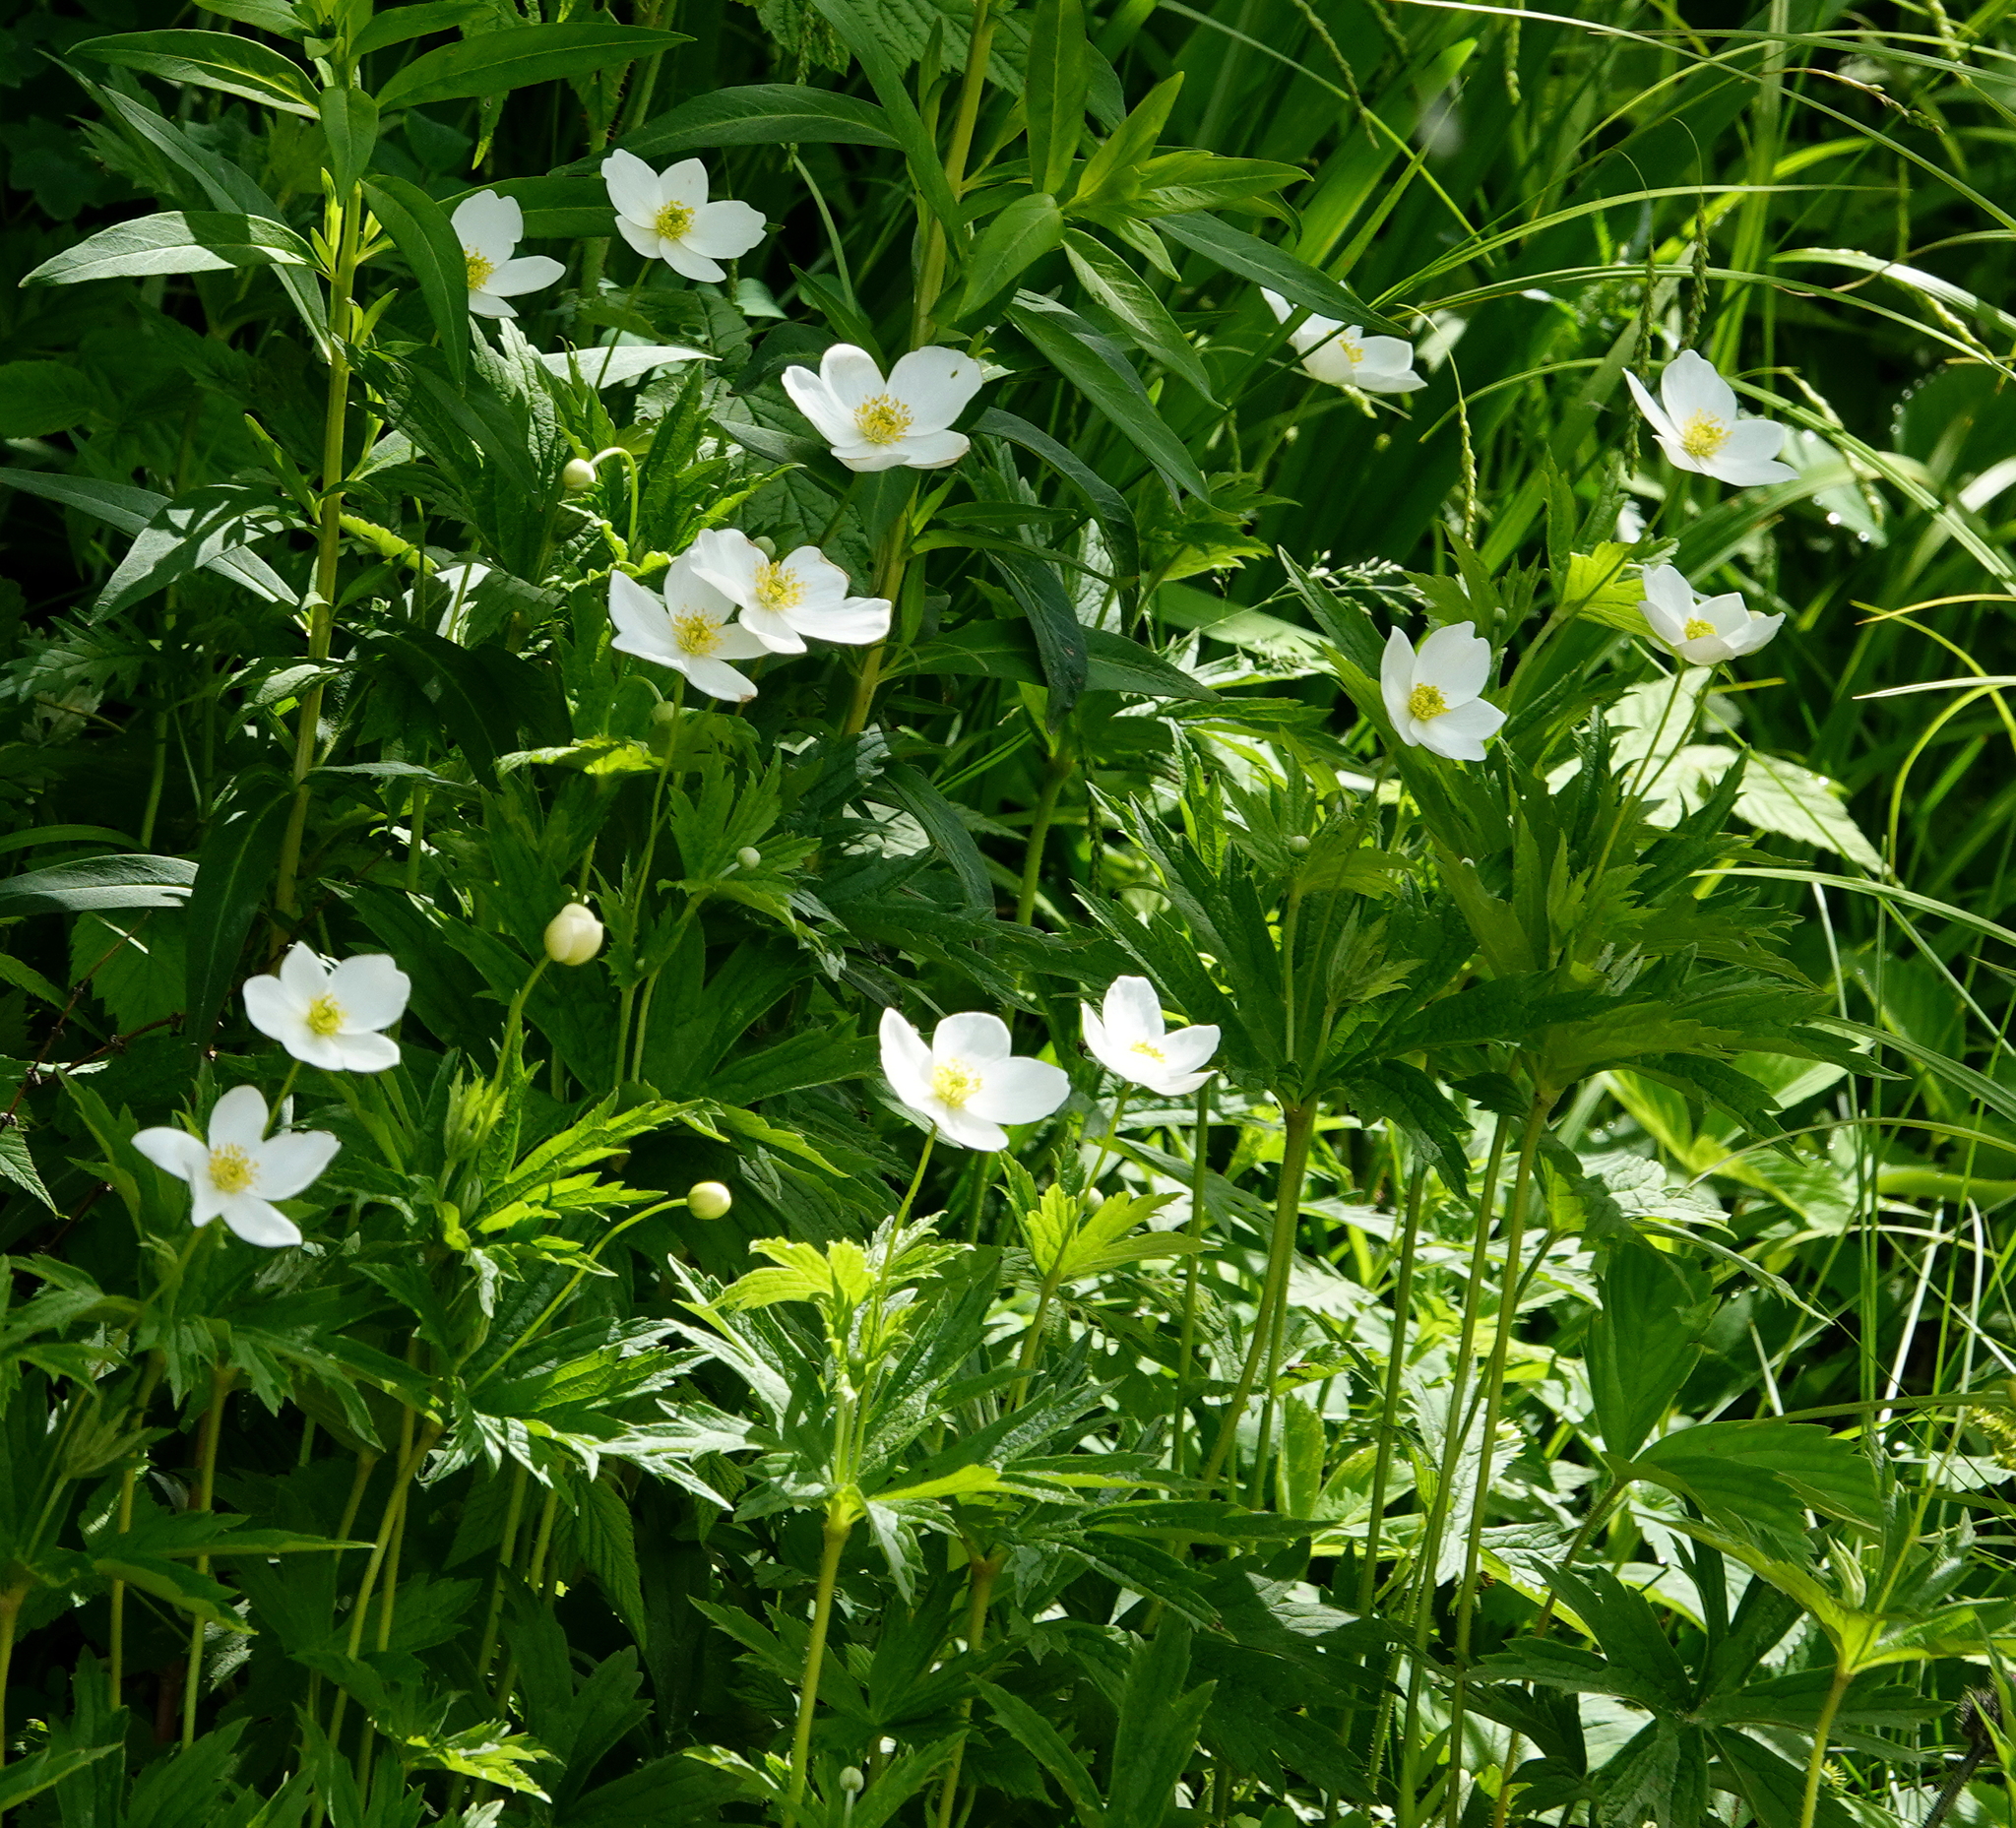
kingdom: Plantae
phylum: Tracheophyta
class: Magnoliopsida
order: Ranunculales
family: Ranunculaceae
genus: Anemonastrum
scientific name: Anemonastrum canadense
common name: Canada anemone
